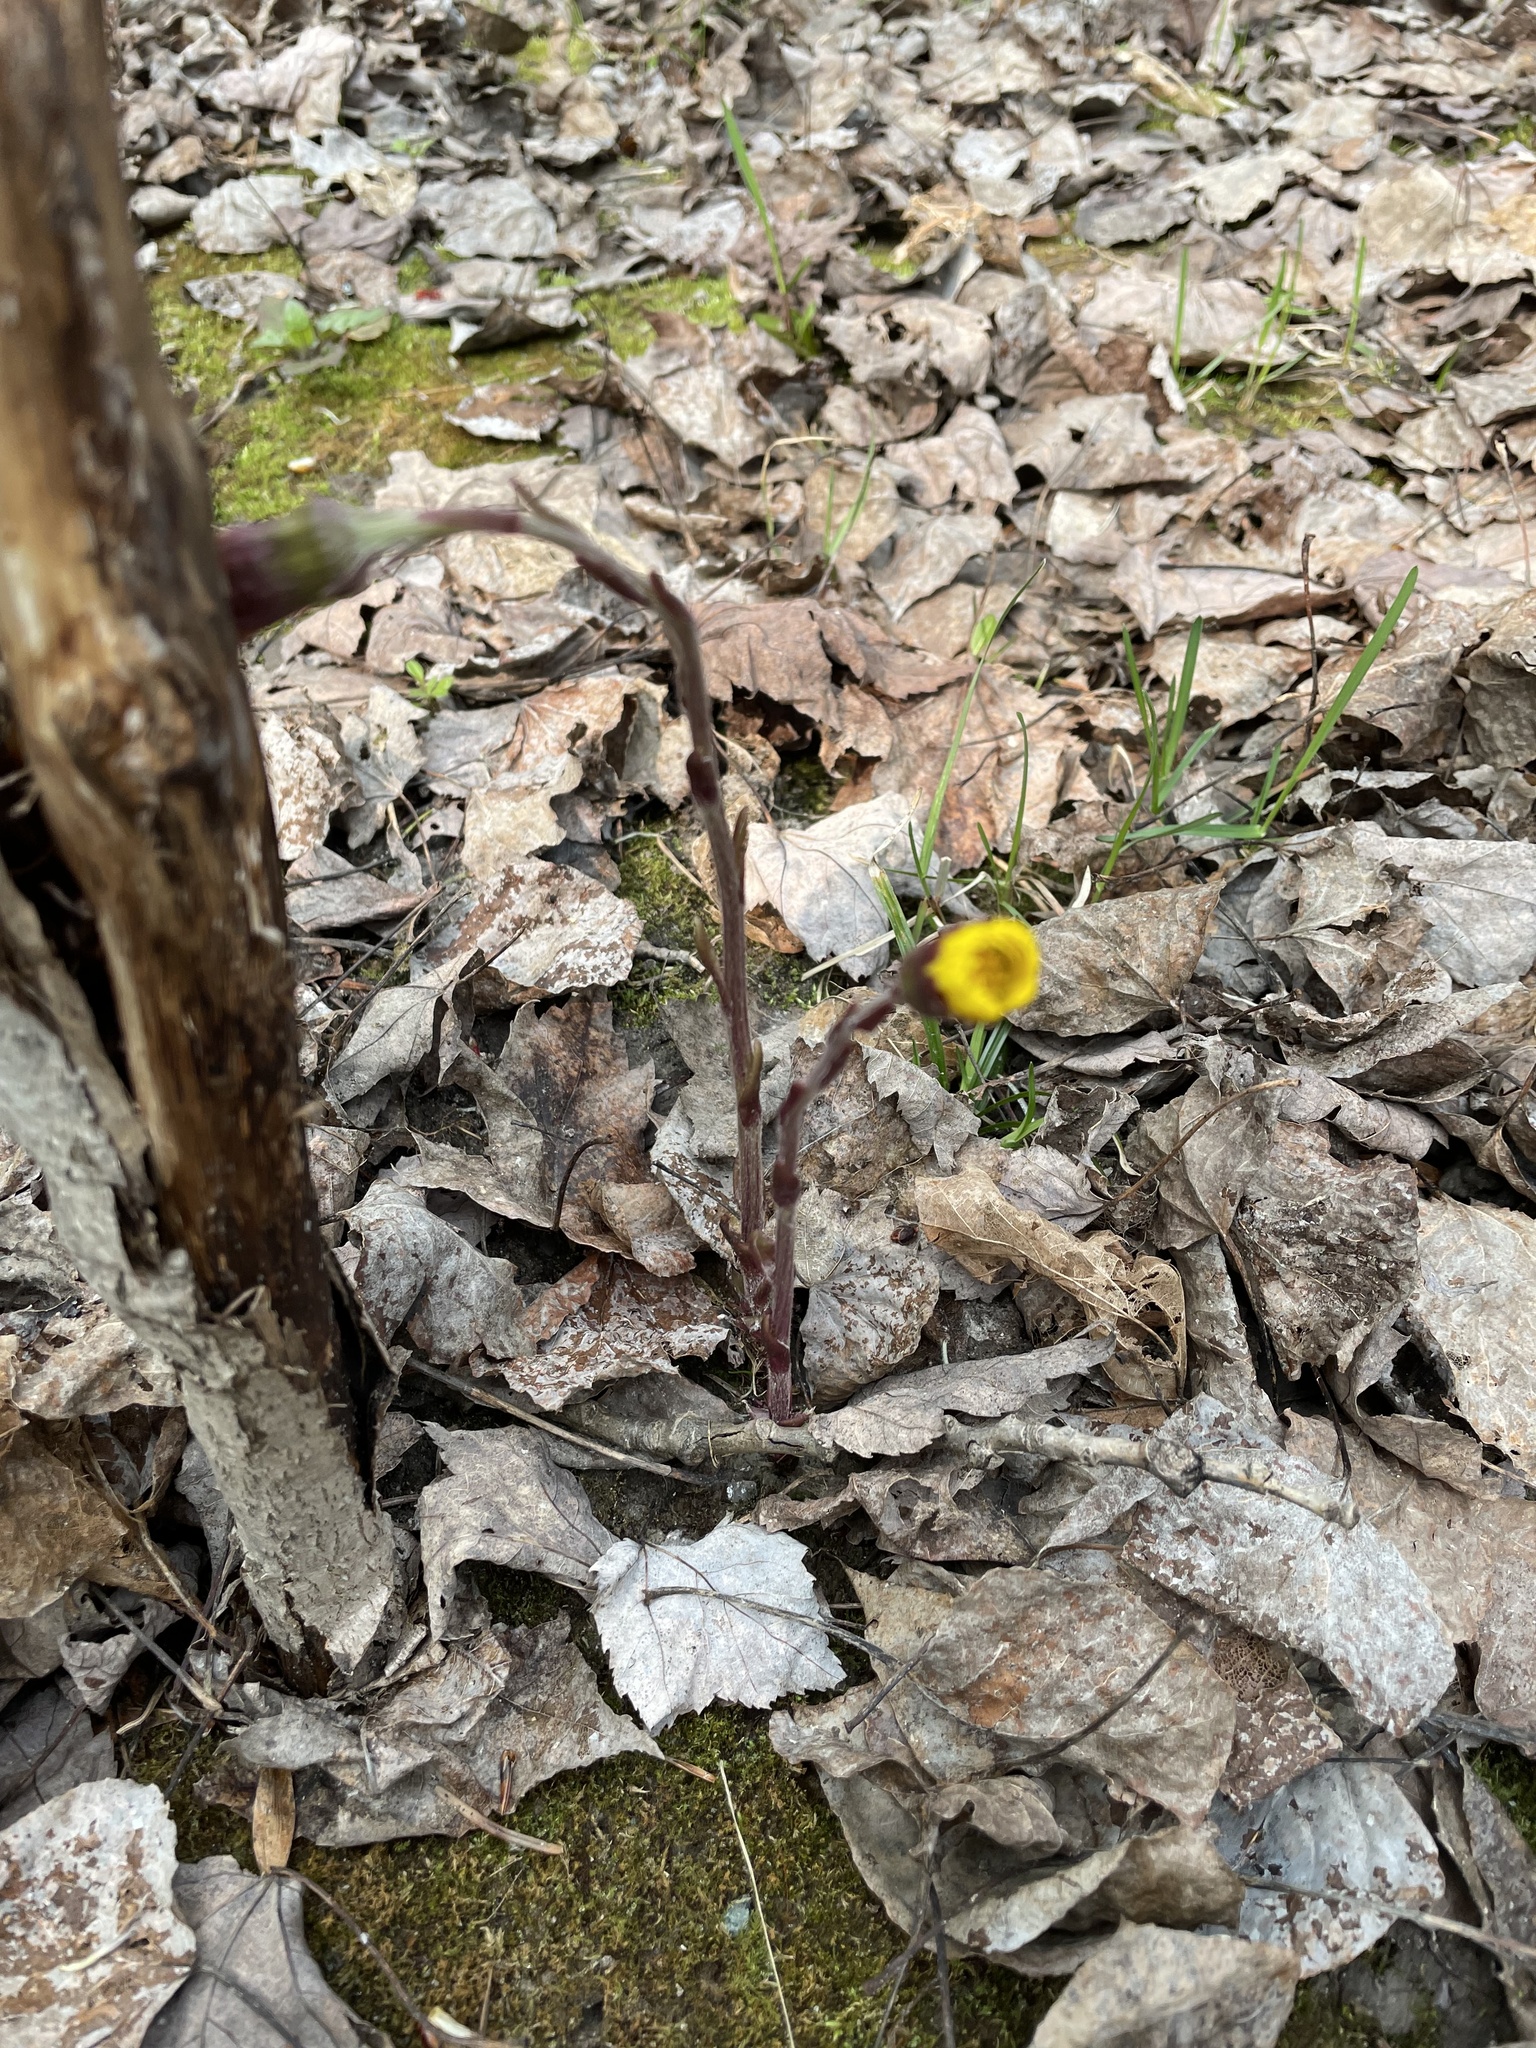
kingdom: Plantae
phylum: Tracheophyta
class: Magnoliopsida
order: Asterales
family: Asteraceae
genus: Tussilago
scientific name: Tussilago farfara
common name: Coltsfoot
